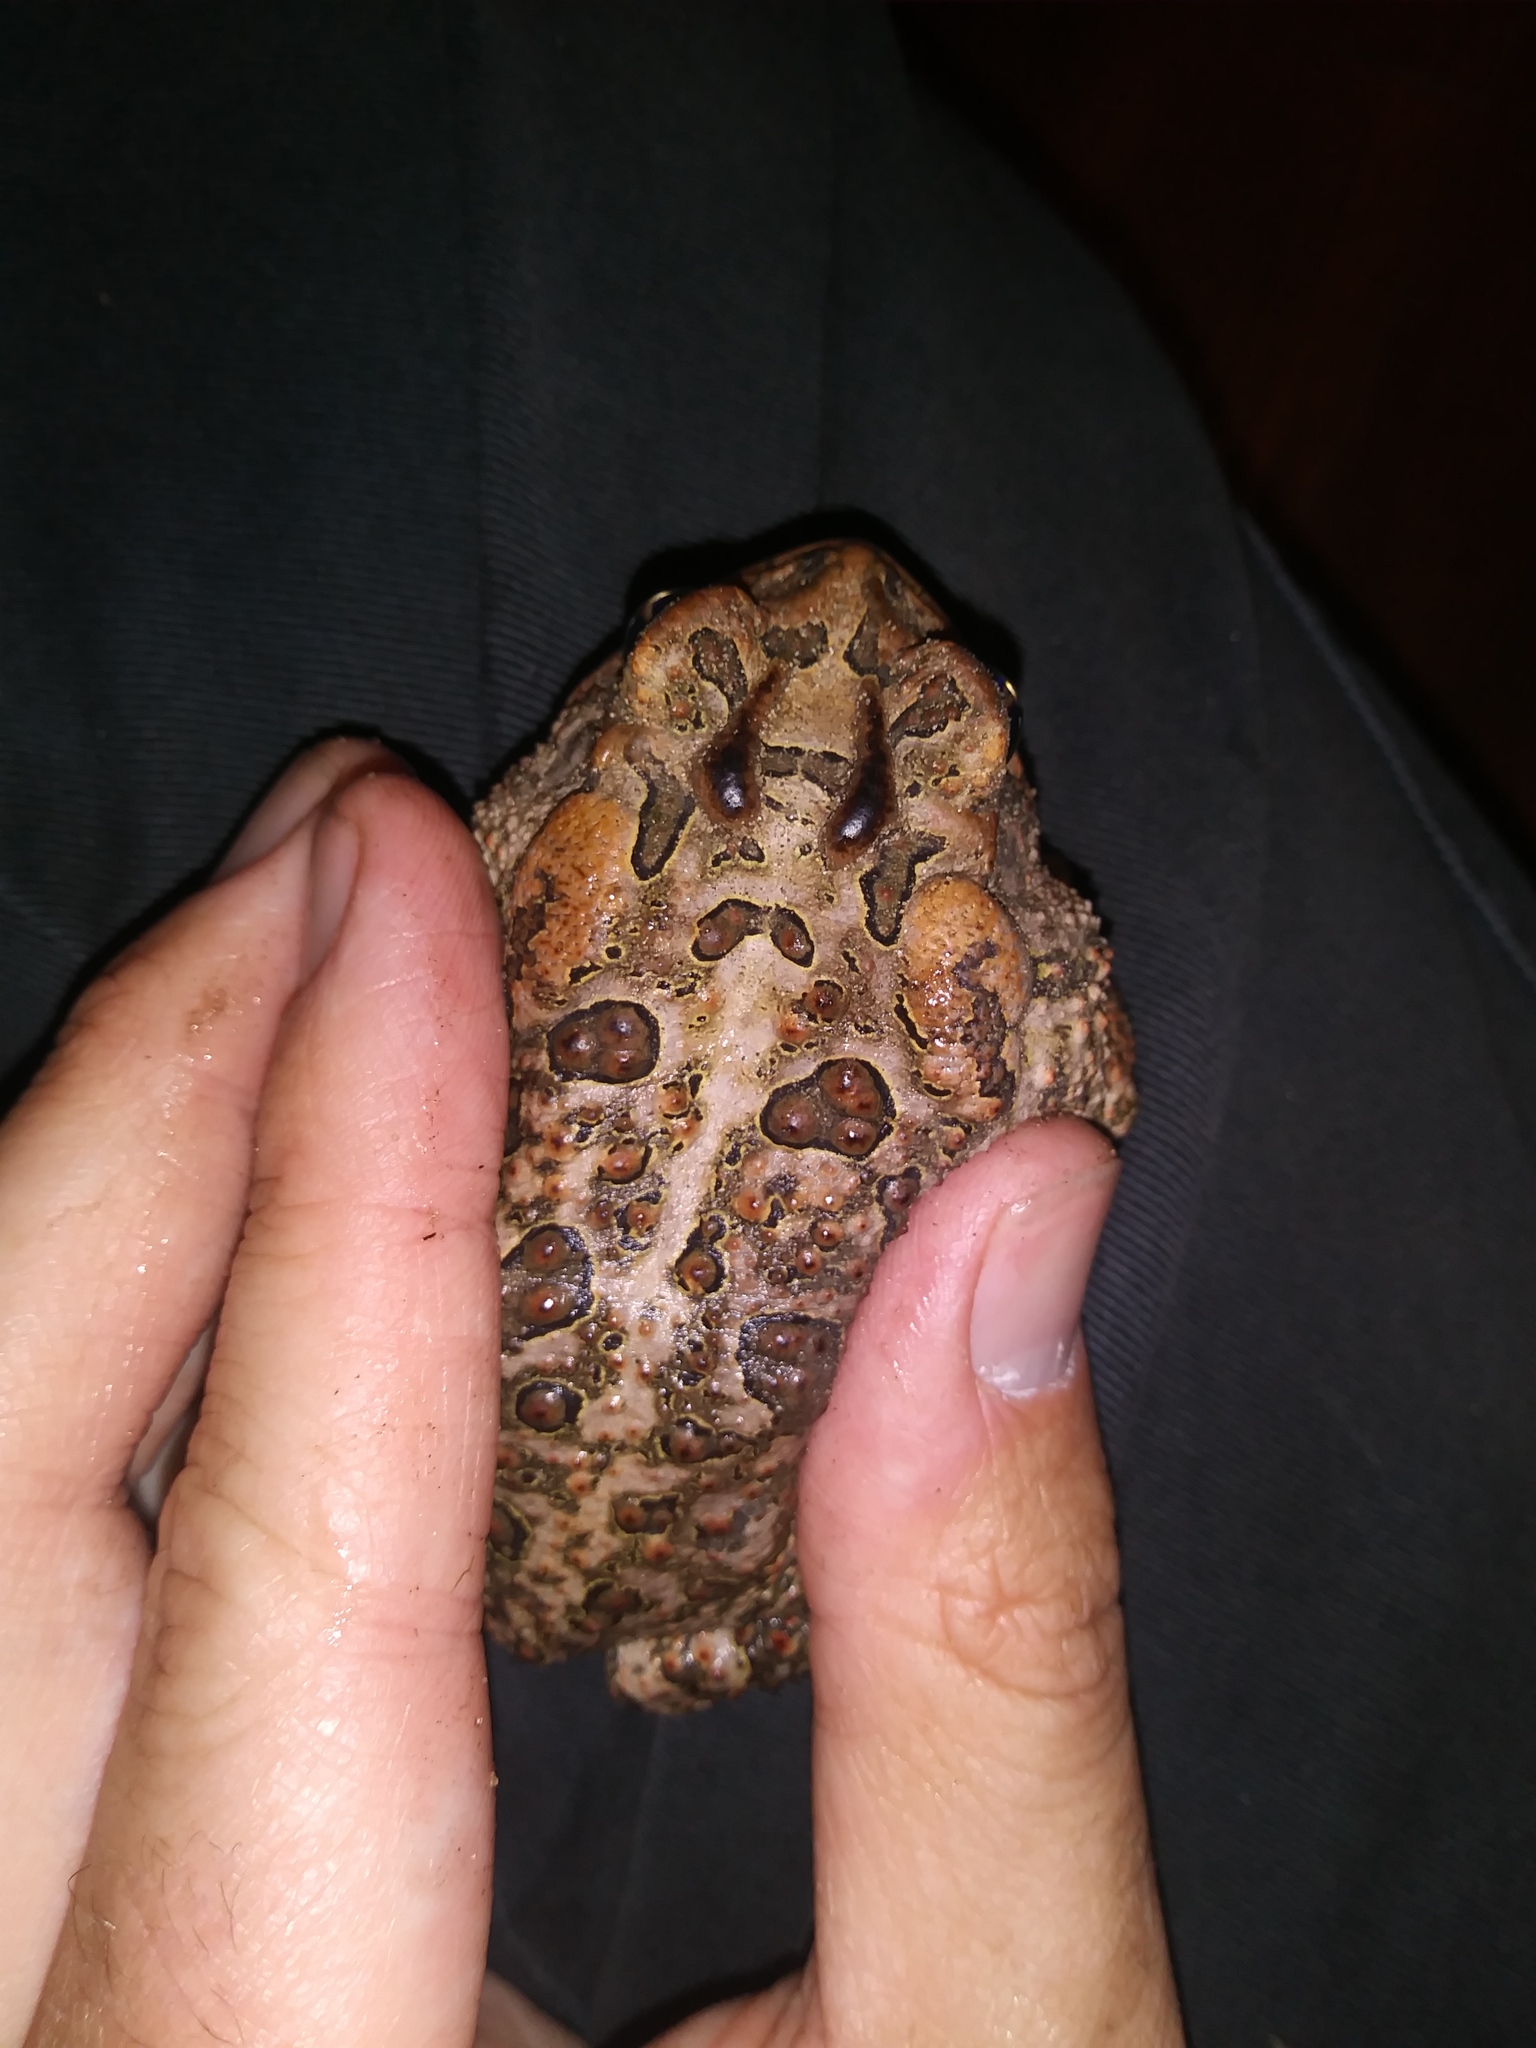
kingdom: Animalia
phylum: Chordata
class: Amphibia
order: Anura
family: Bufonidae
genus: Anaxyrus
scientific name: Anaxyrus terrestris
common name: Southern toad
